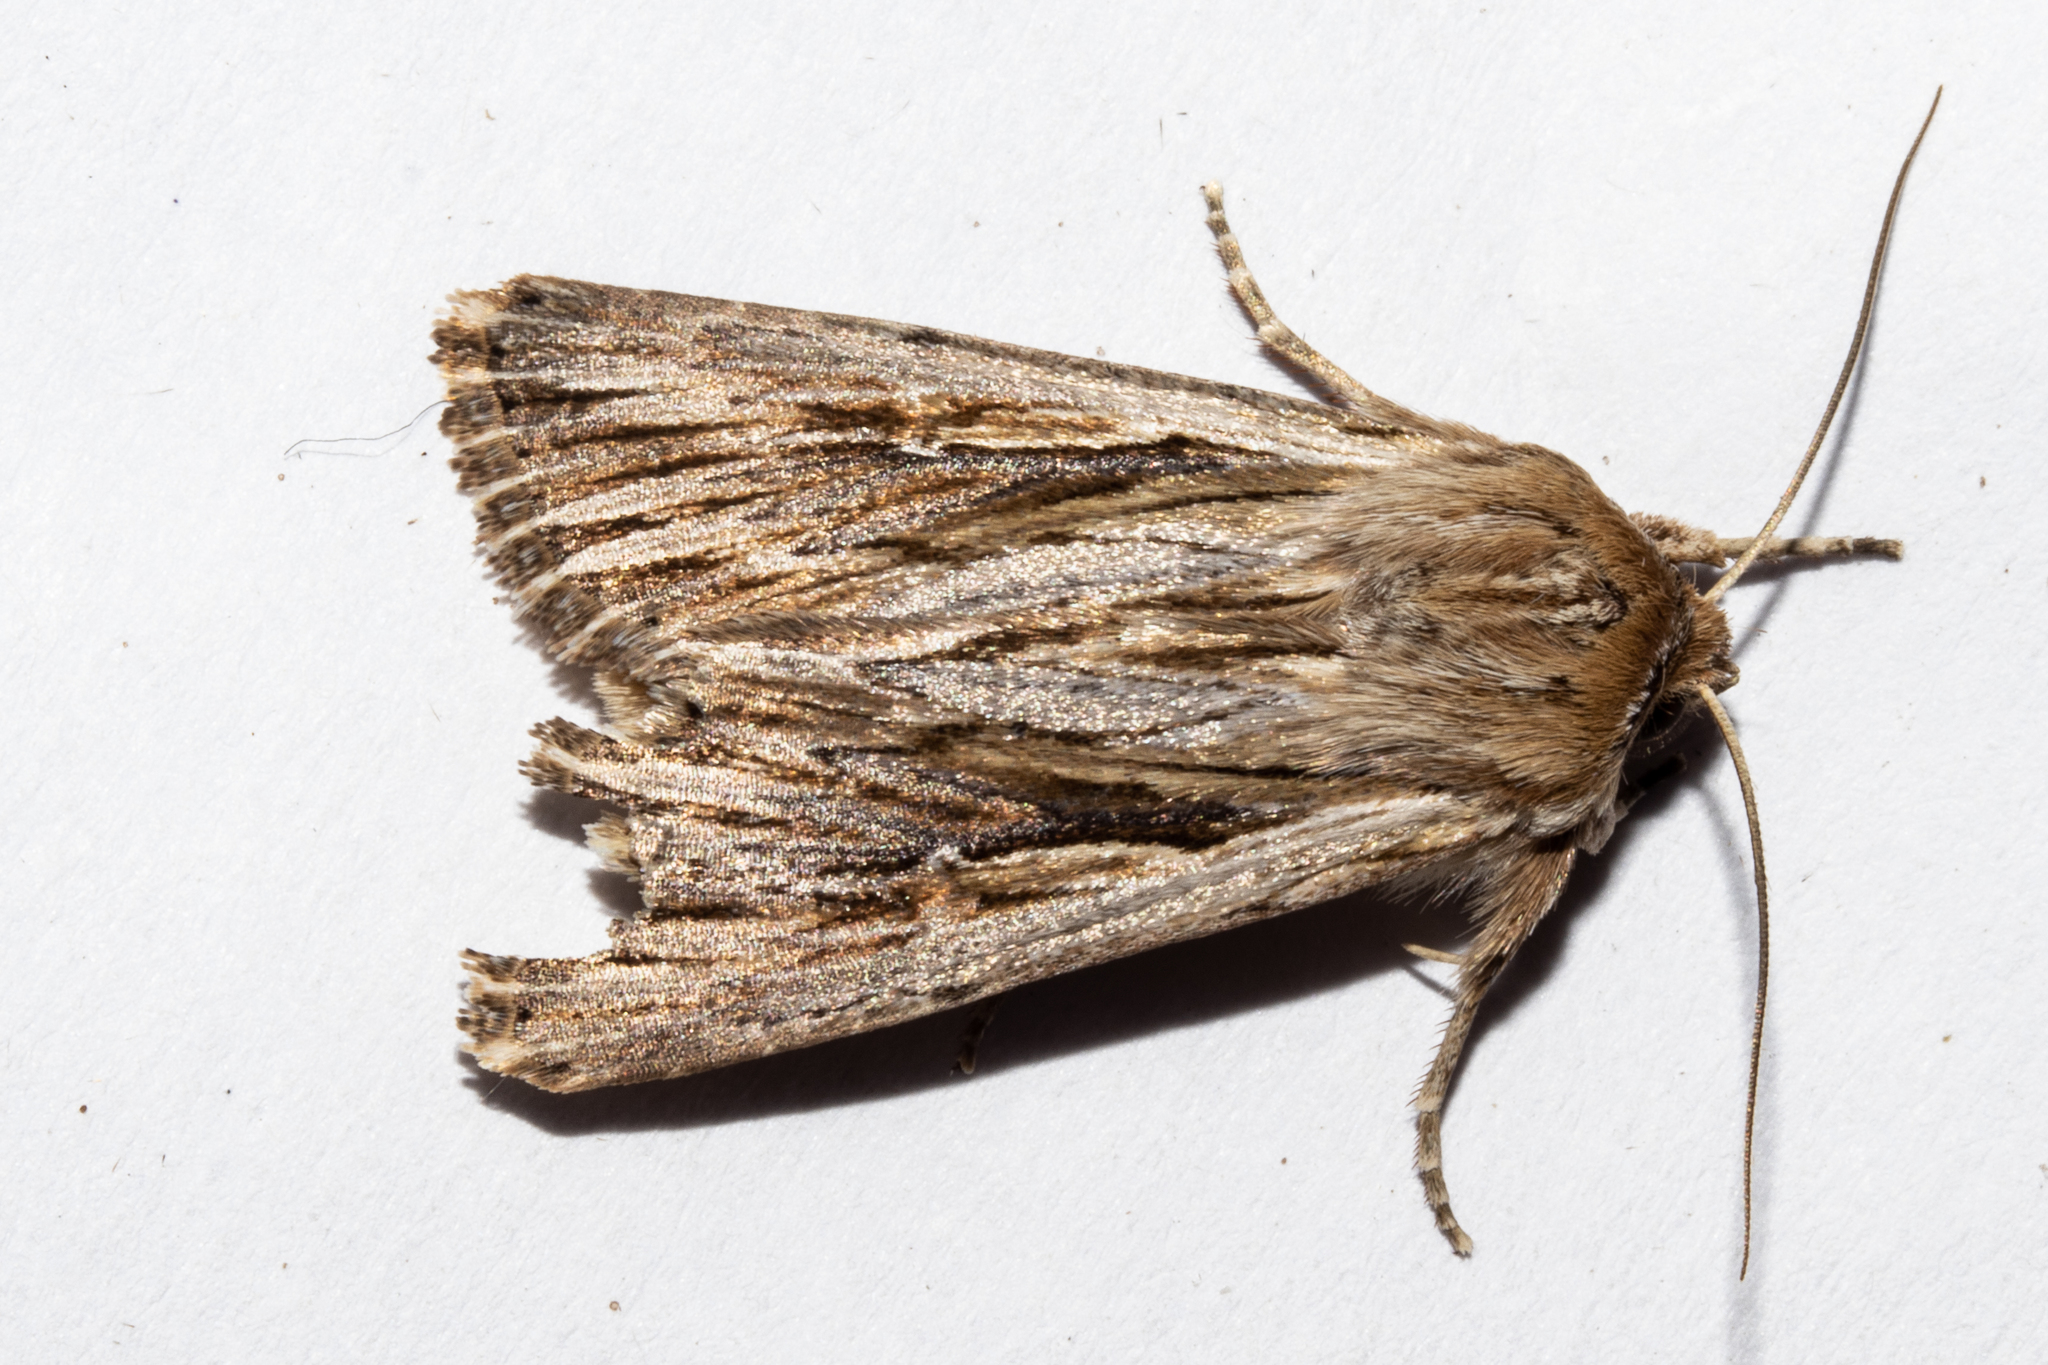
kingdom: Animalia
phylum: Arthropoda
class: Insecta
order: Lepidoptera
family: Noctuidae
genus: Persectania
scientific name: Persectania aversa
